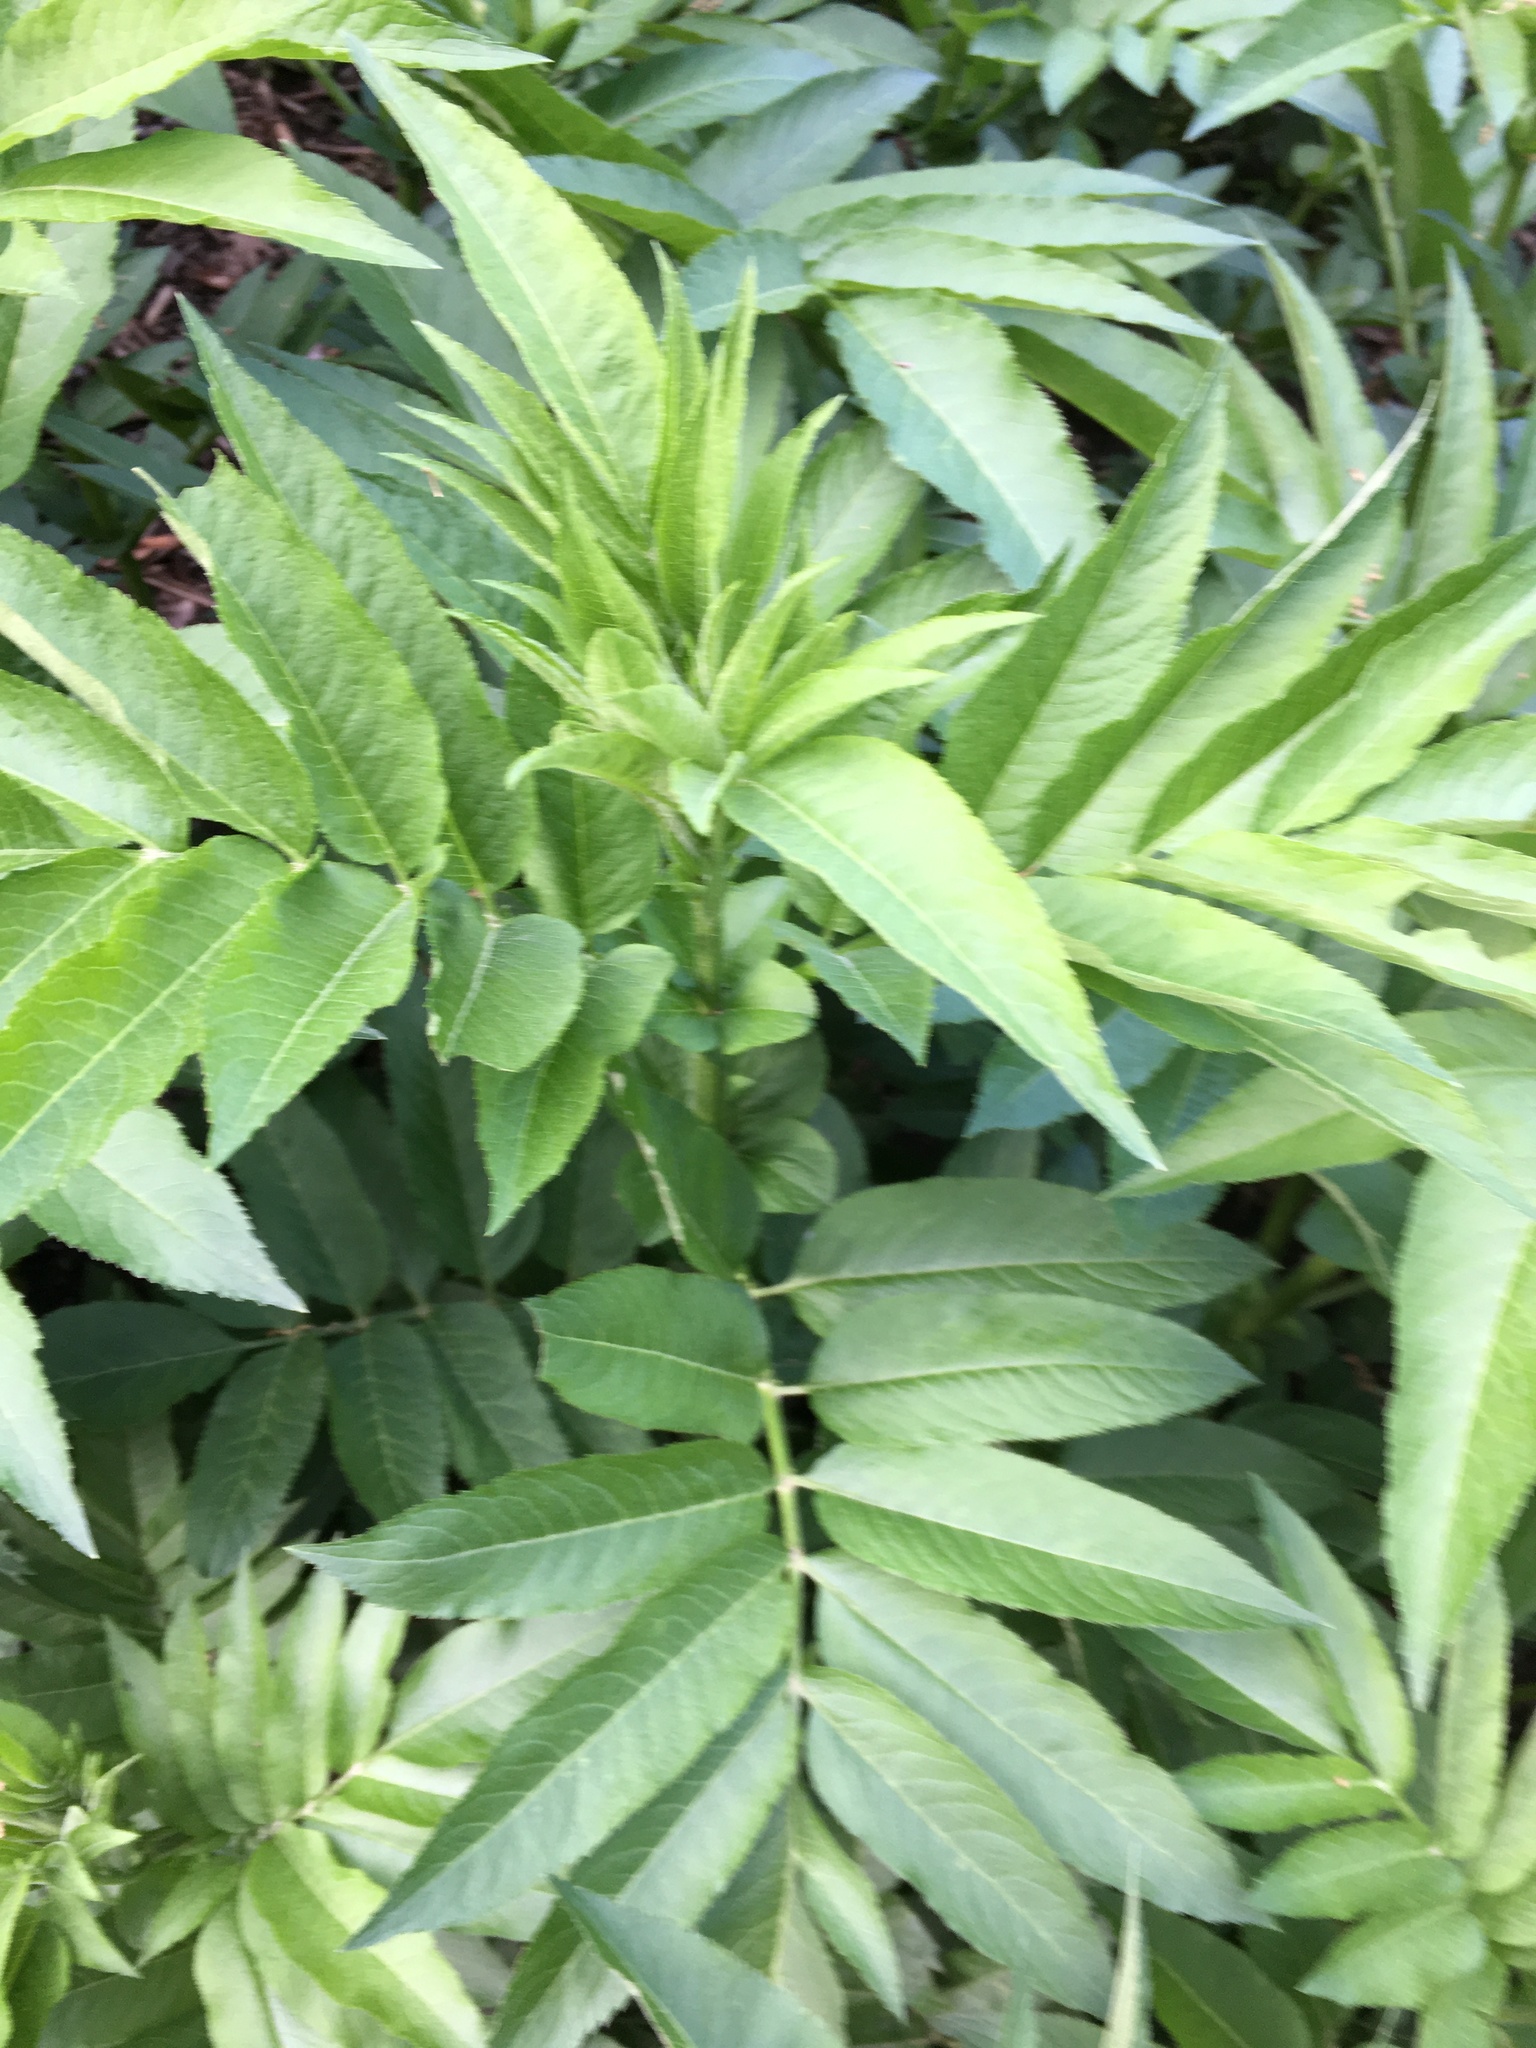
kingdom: Plantae
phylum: Tracheophyta
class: Magnoliopsida
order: Dipsacales
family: Viburnaceae
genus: Sambucus
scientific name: Sambucus ebulus
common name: Dwarf elder
